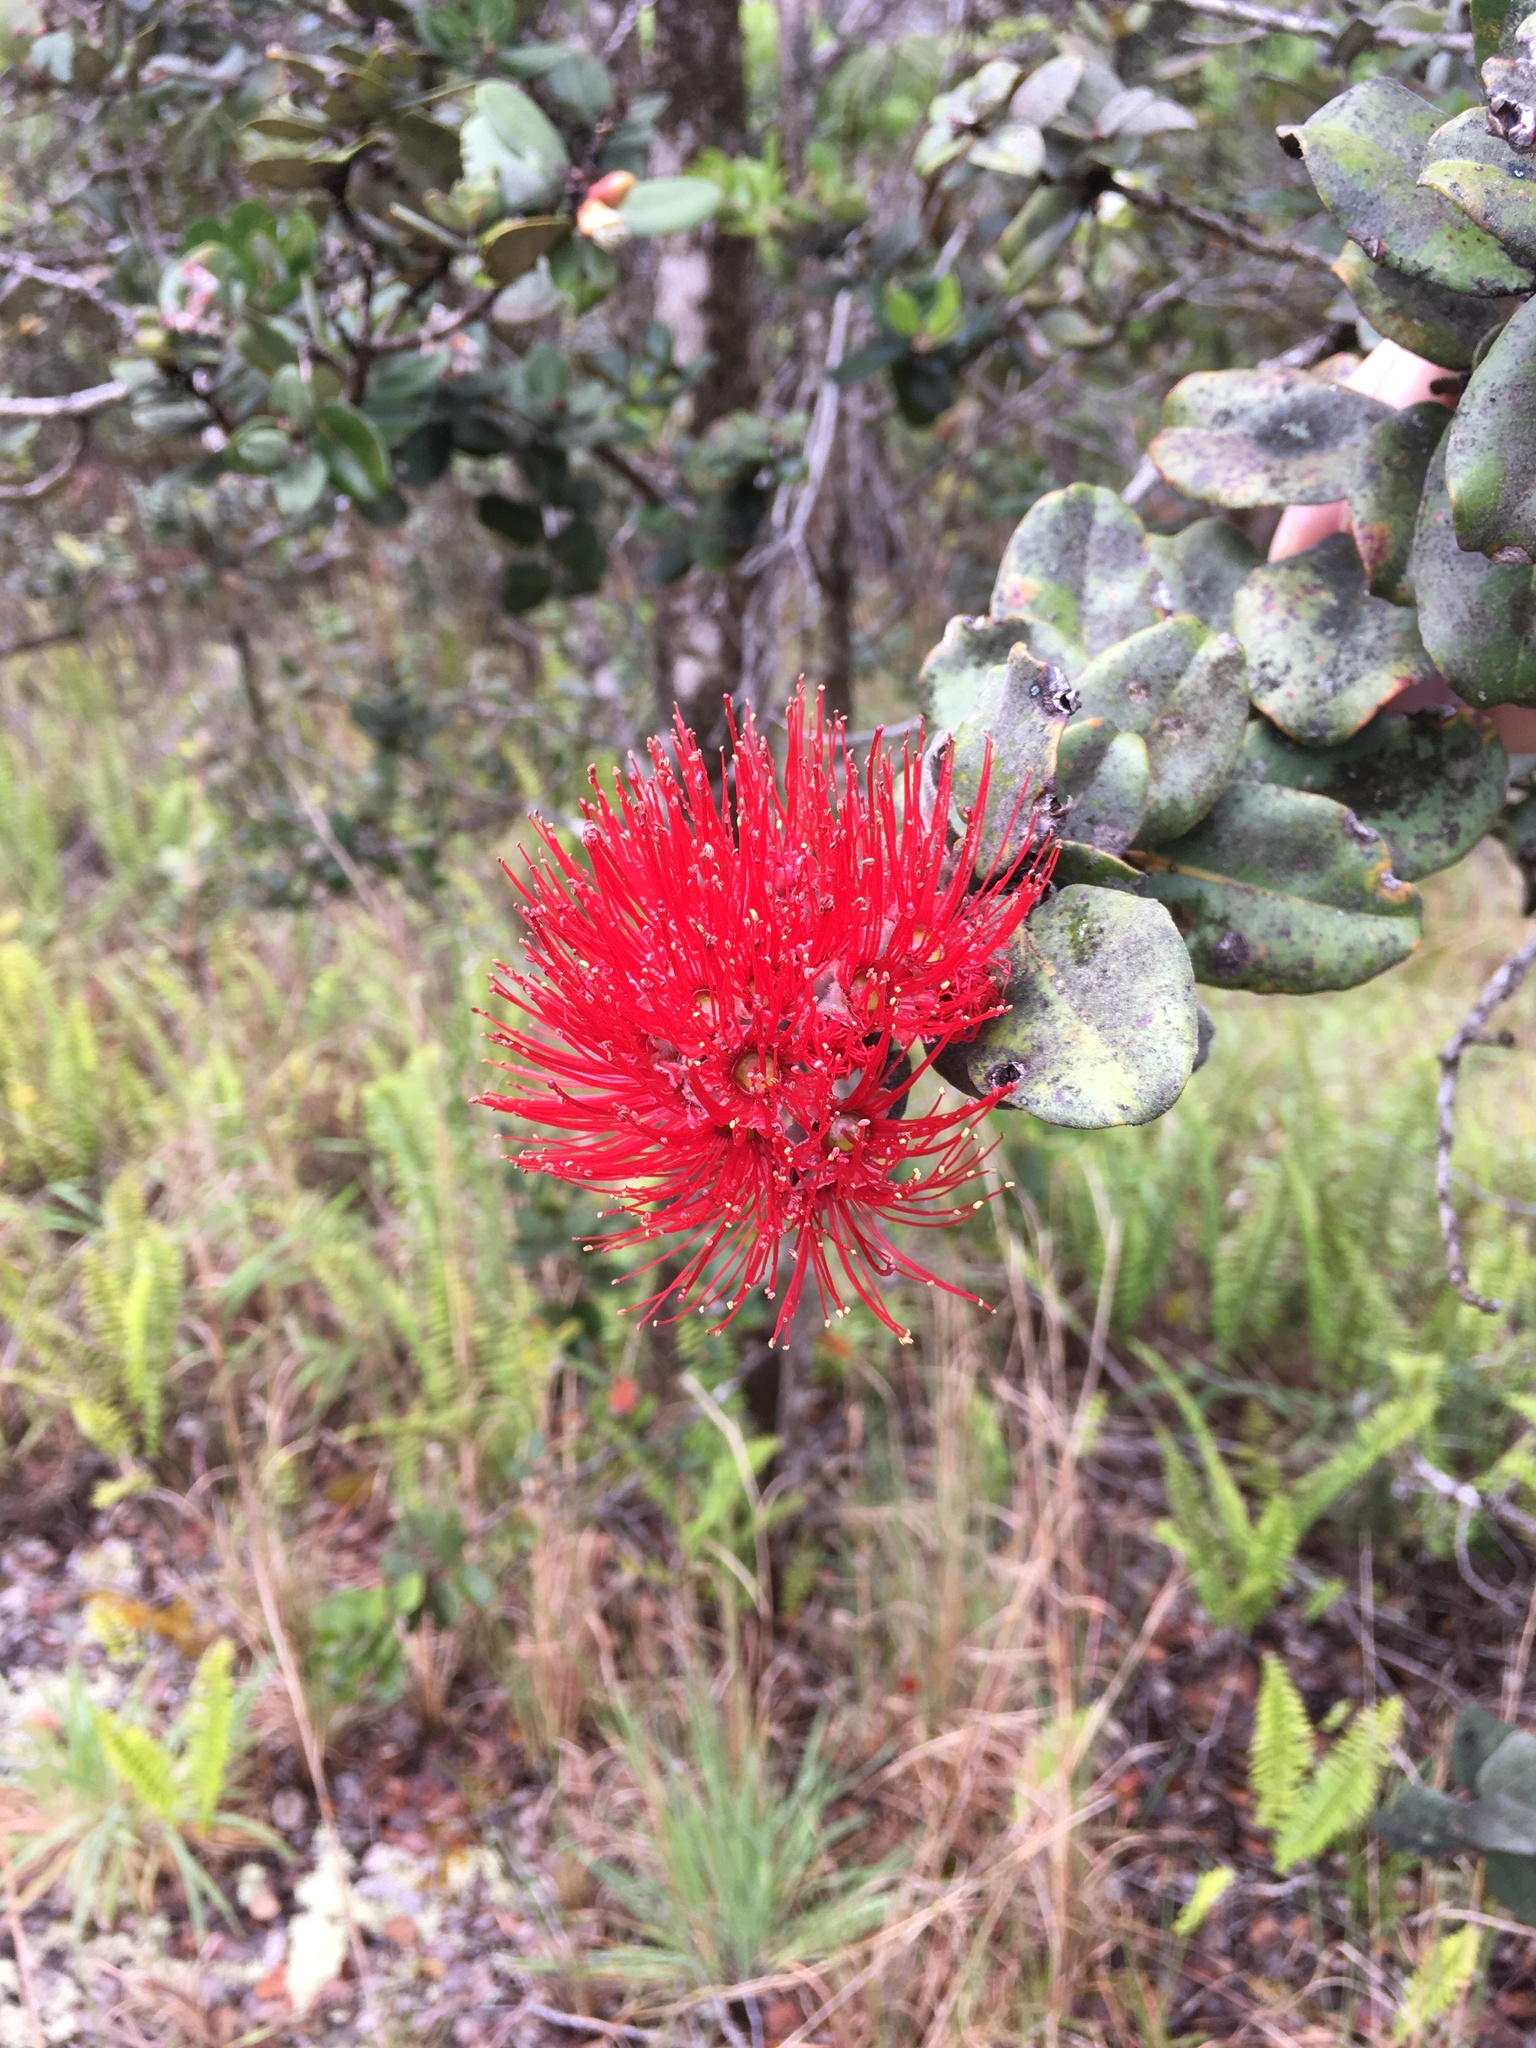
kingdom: Plantae
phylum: Tracheophyta
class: Magnoliopsida
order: Myrtales
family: Myrtaceae
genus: Metrosideros
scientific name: Metrosideros polymorpha
